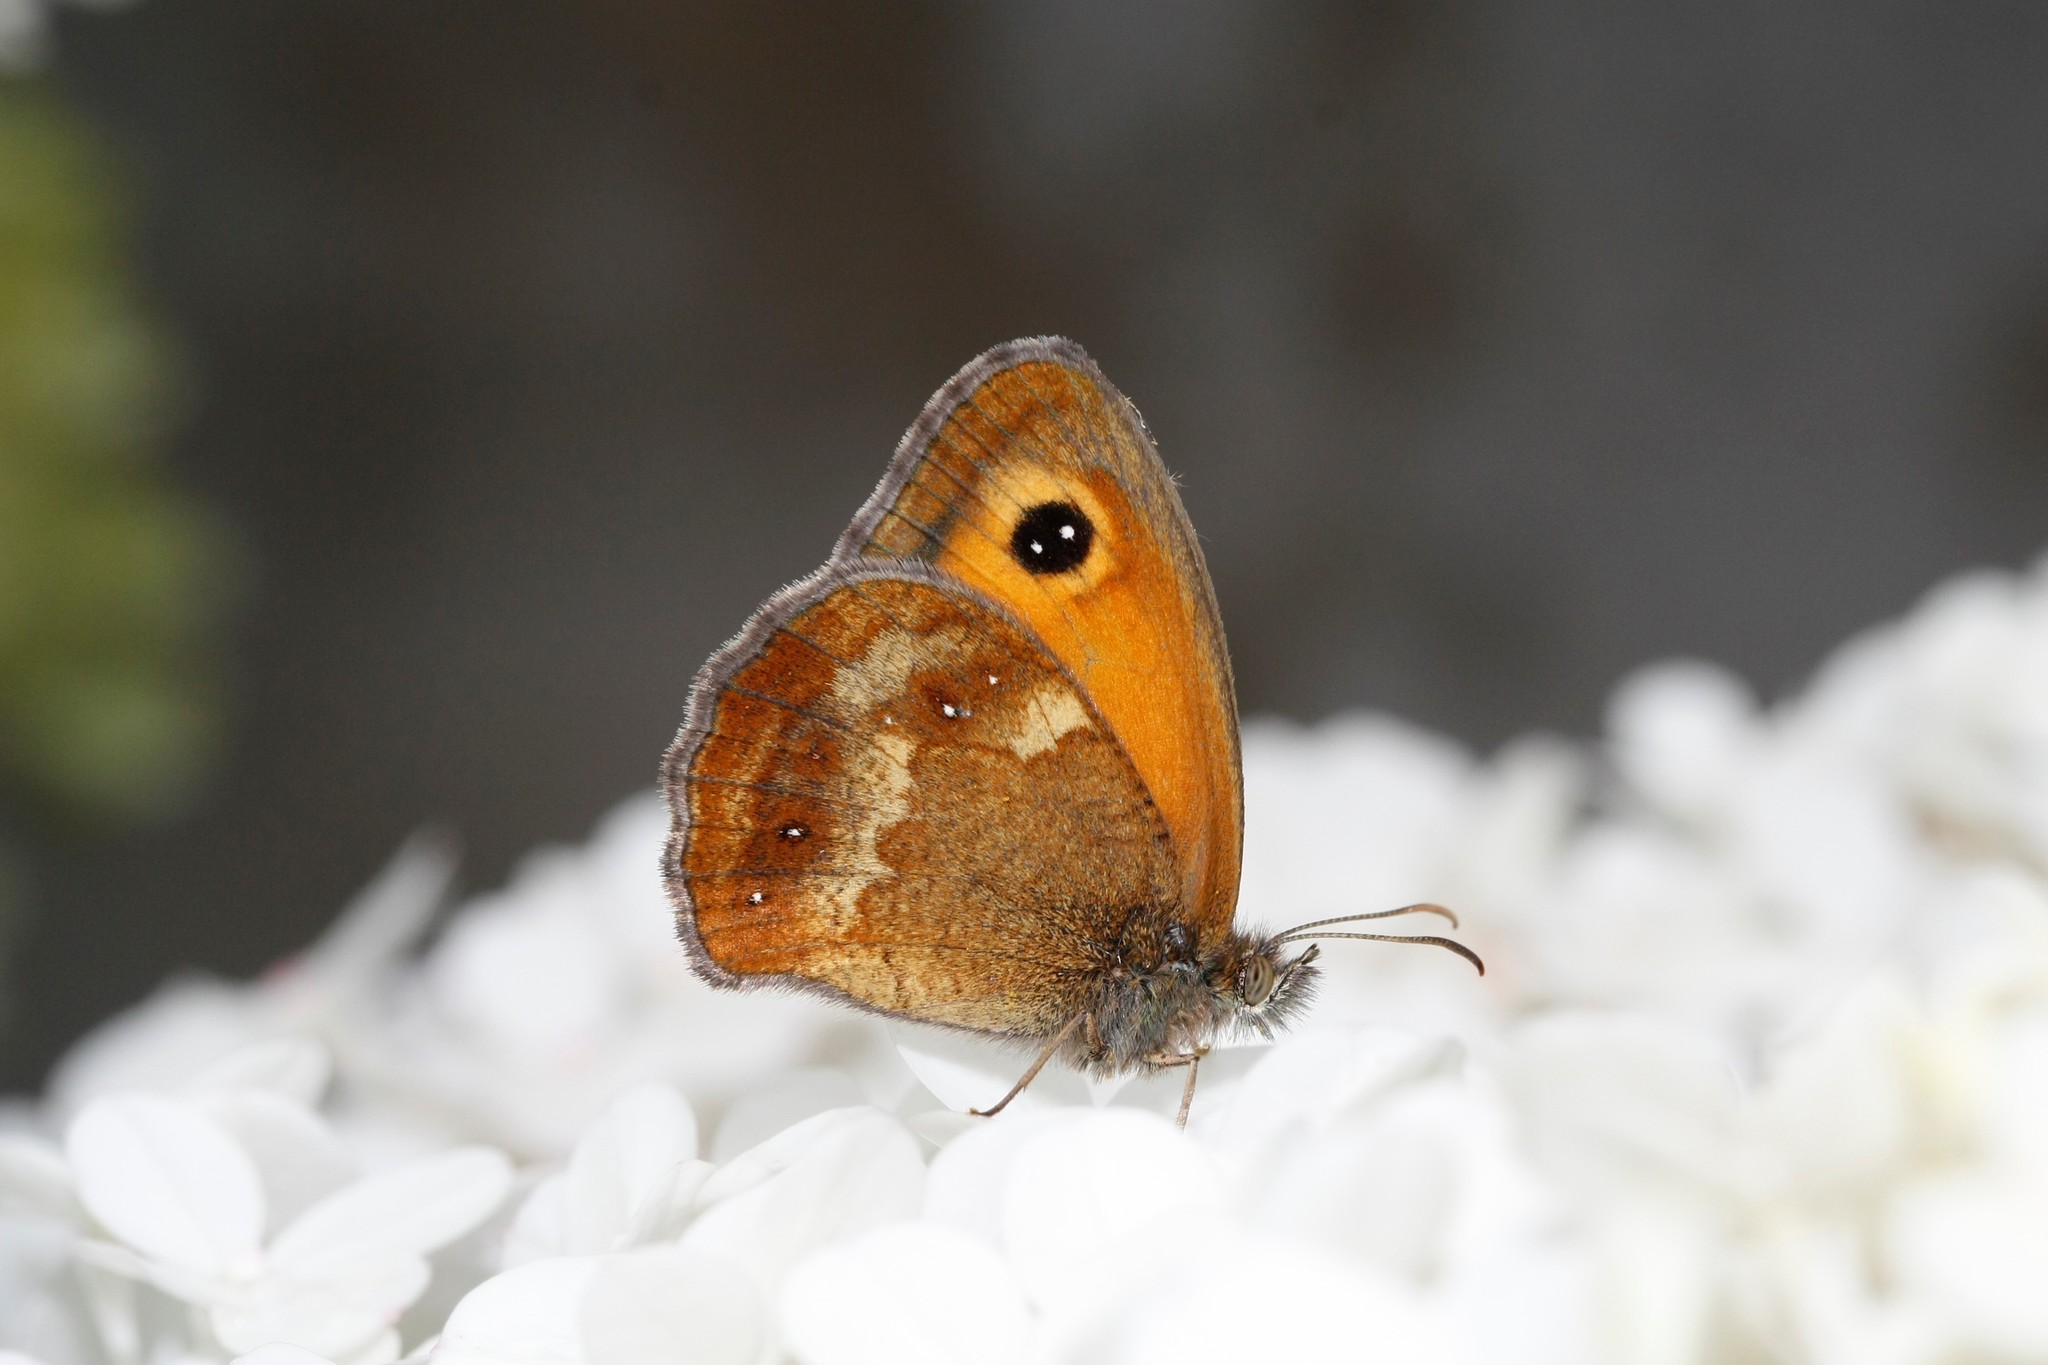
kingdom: Animalia
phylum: Arthropoda
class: Insecta
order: Lepidoptera
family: Nymphalidae
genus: Pyronia
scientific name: Pyronia tithonus
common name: Gatekeeper
